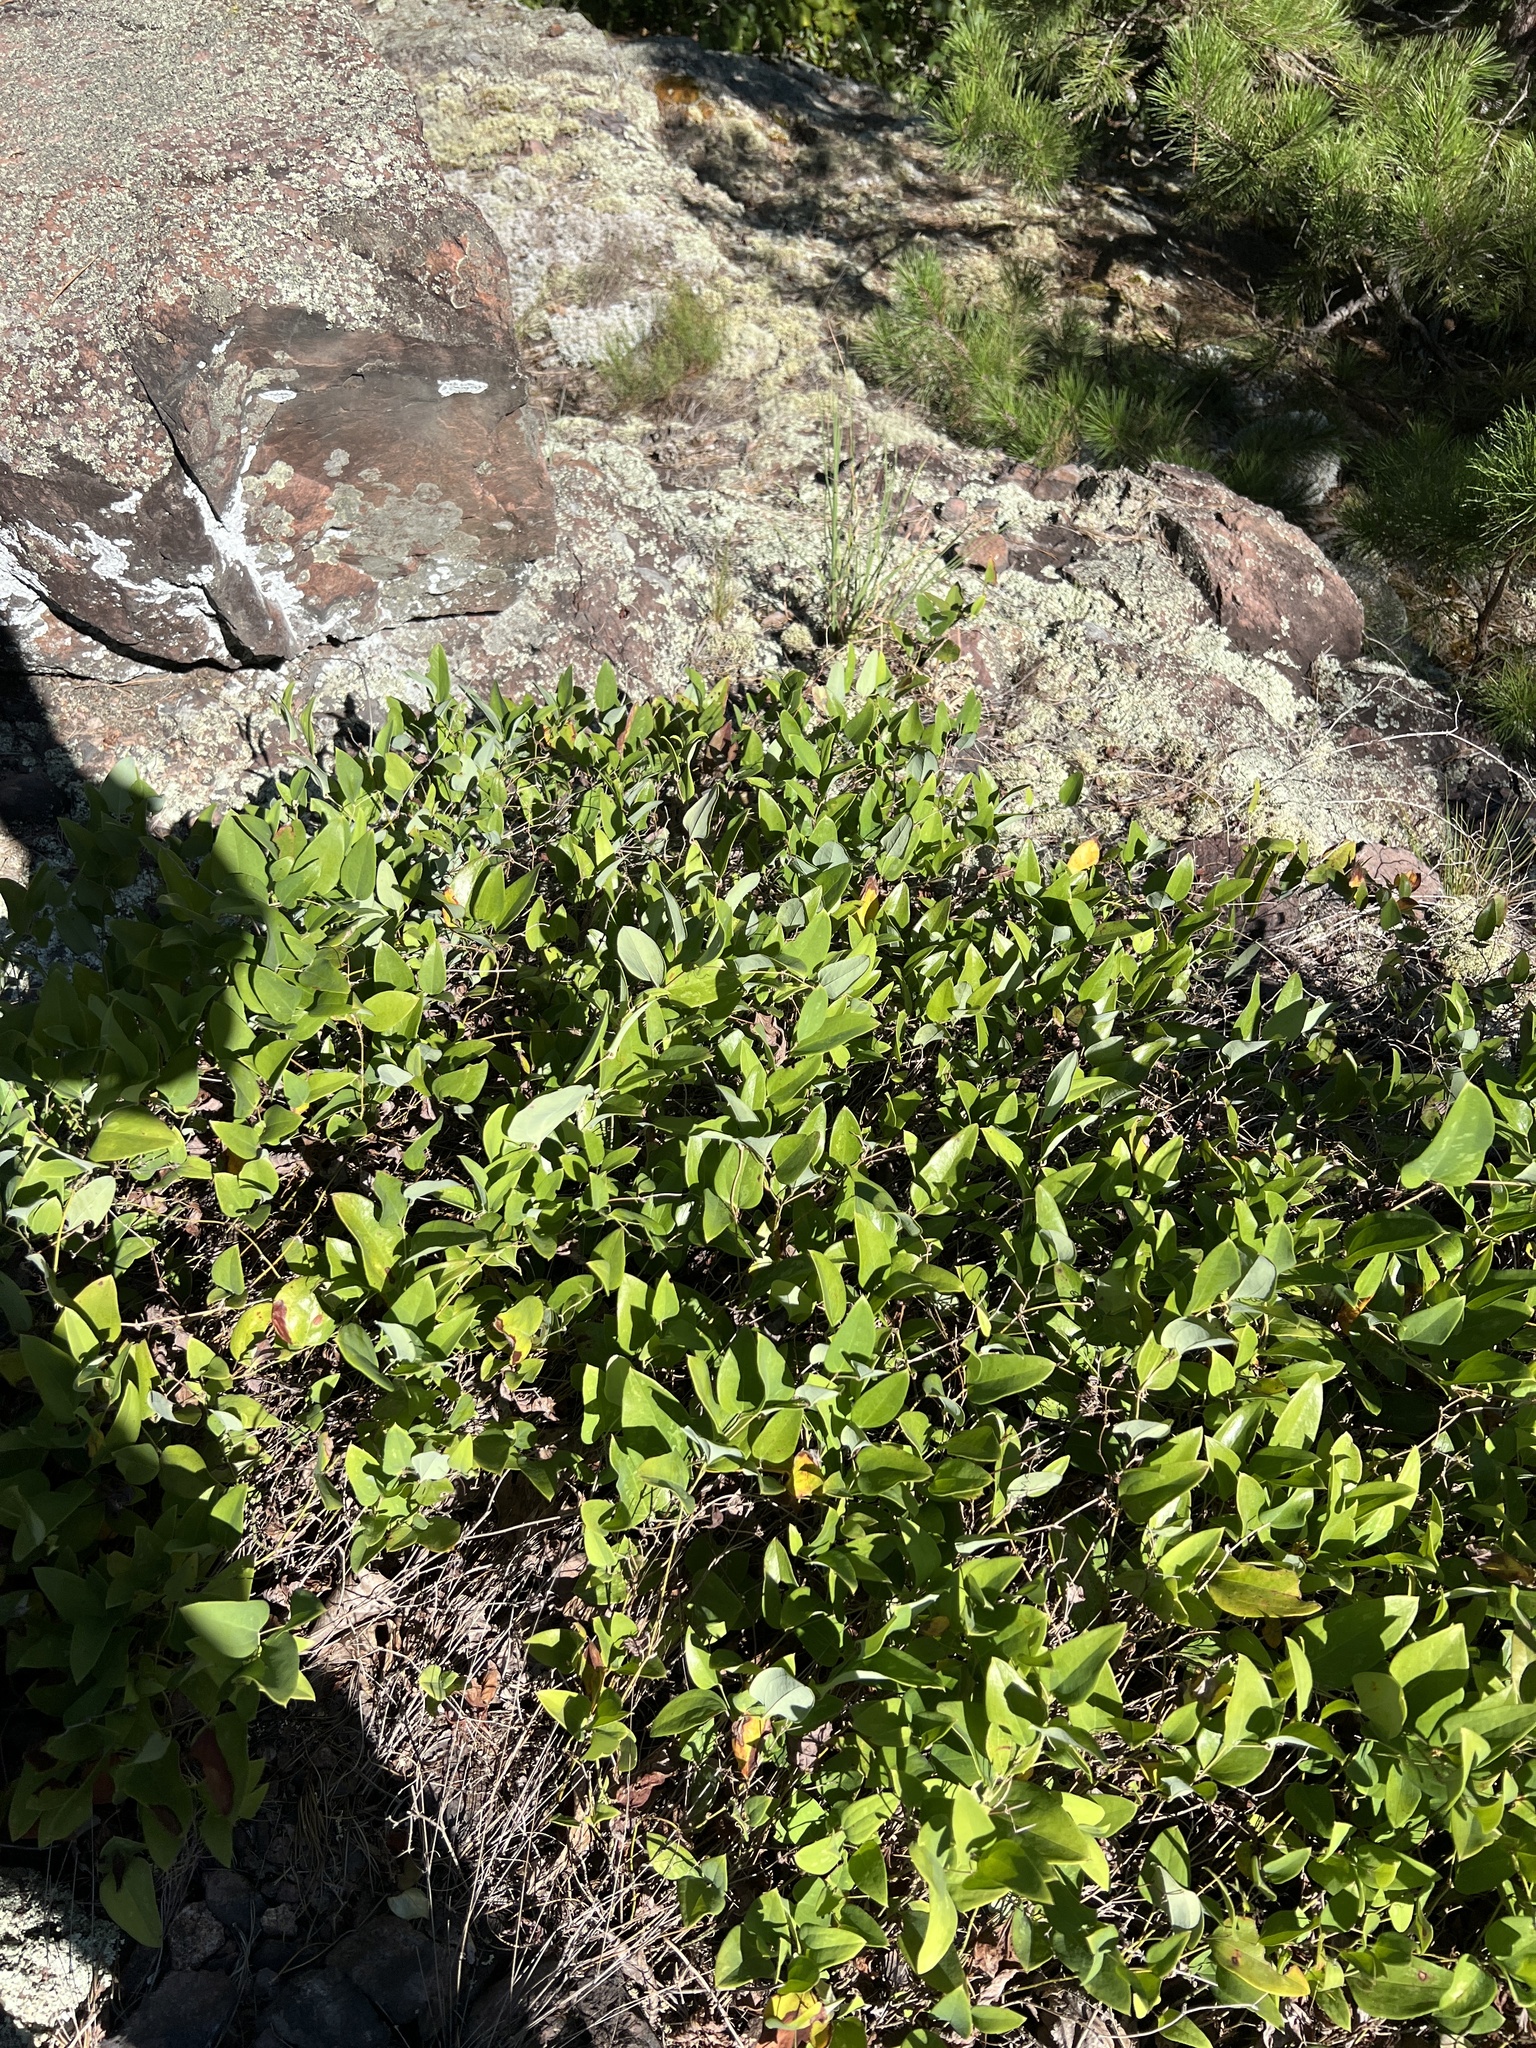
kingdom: Plantae
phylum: Tracheophyta
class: Liliopsida
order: Liliales
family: Smilacaceae
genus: Smilax
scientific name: Smilax glauca
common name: Cat greenbrier
